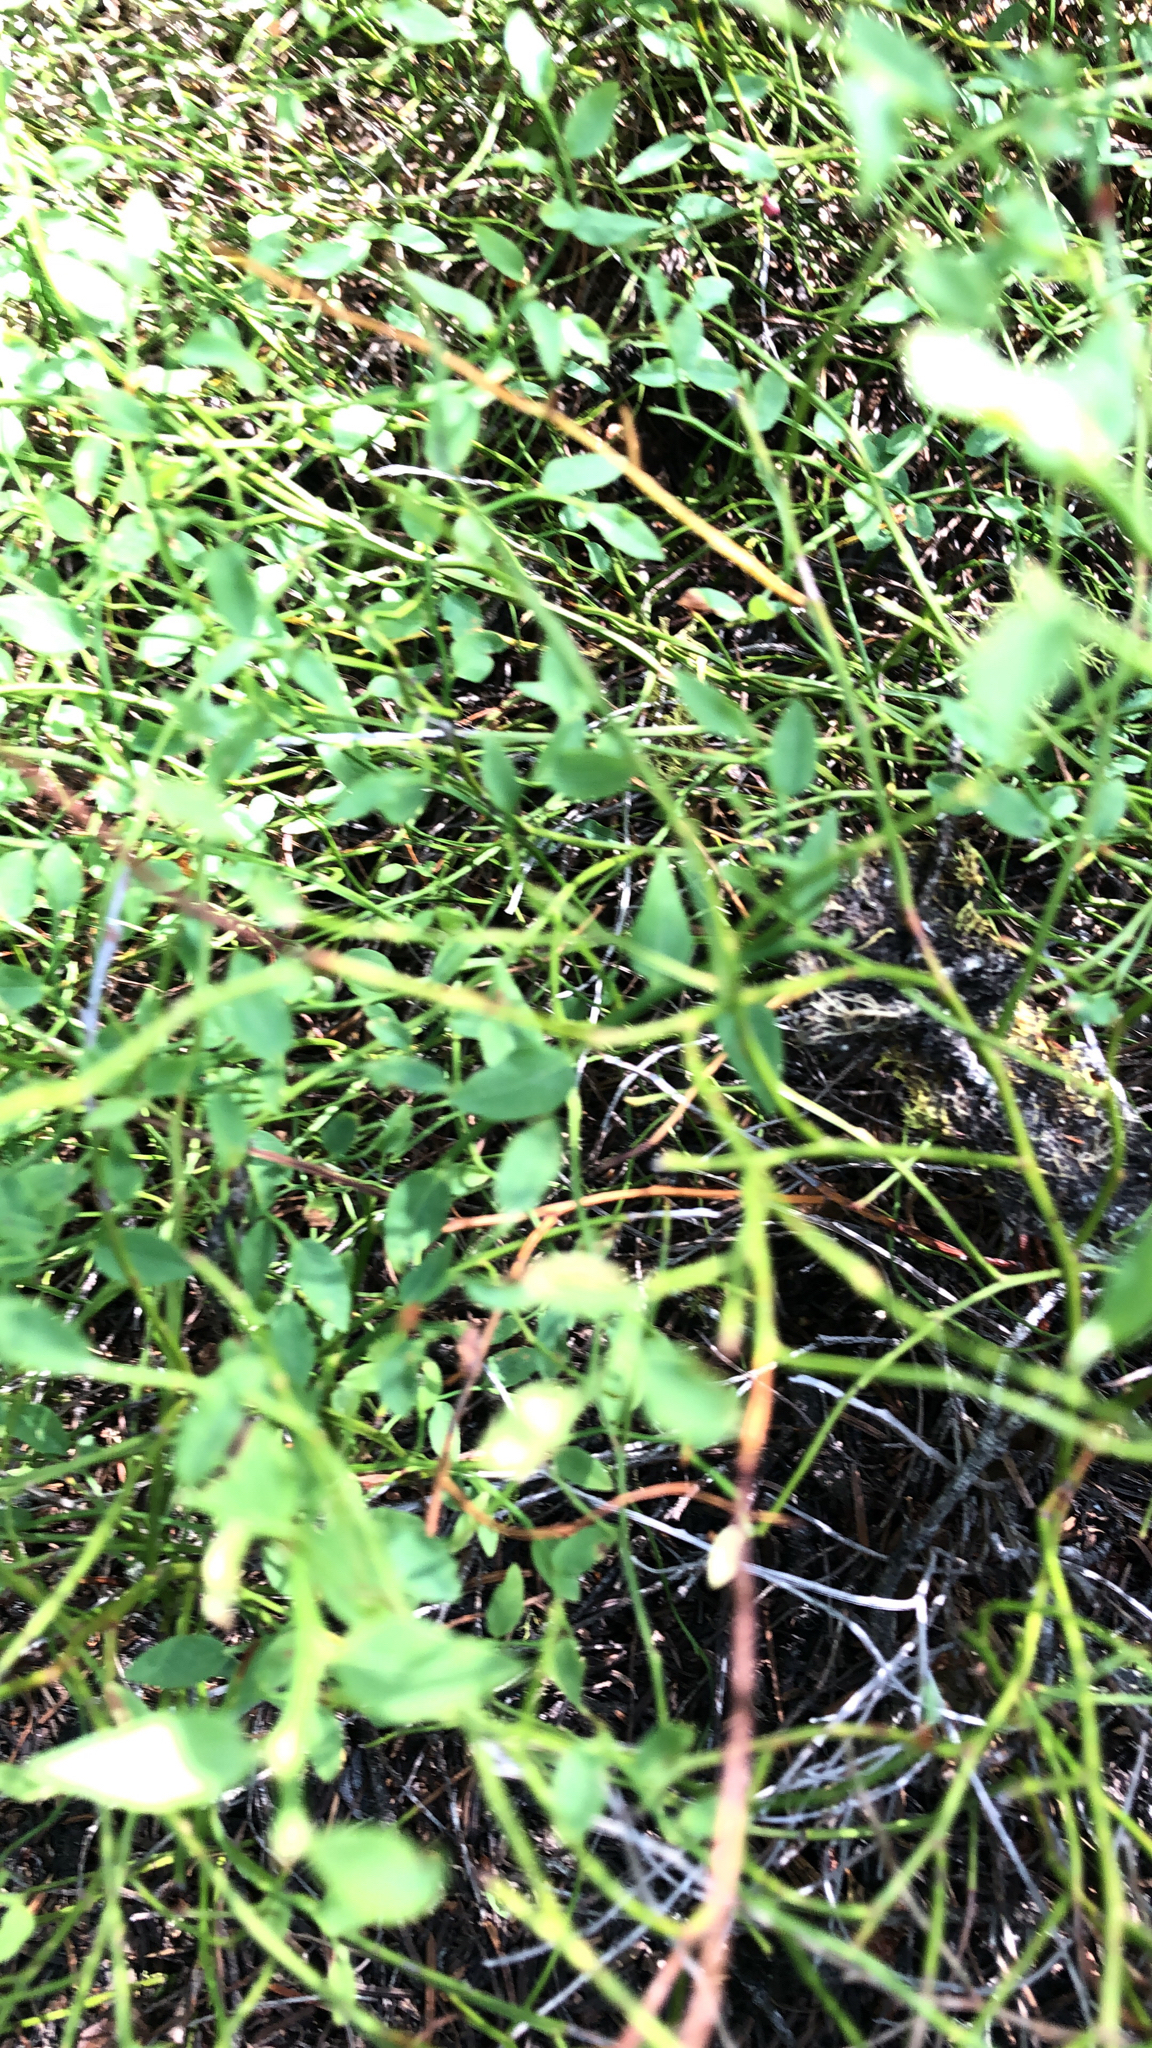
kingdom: Plantae
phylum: Tracheophyta
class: Magnoliopsida
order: Ericales
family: Ericaceae
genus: Vaccinium
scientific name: Vaccinium scoparium
